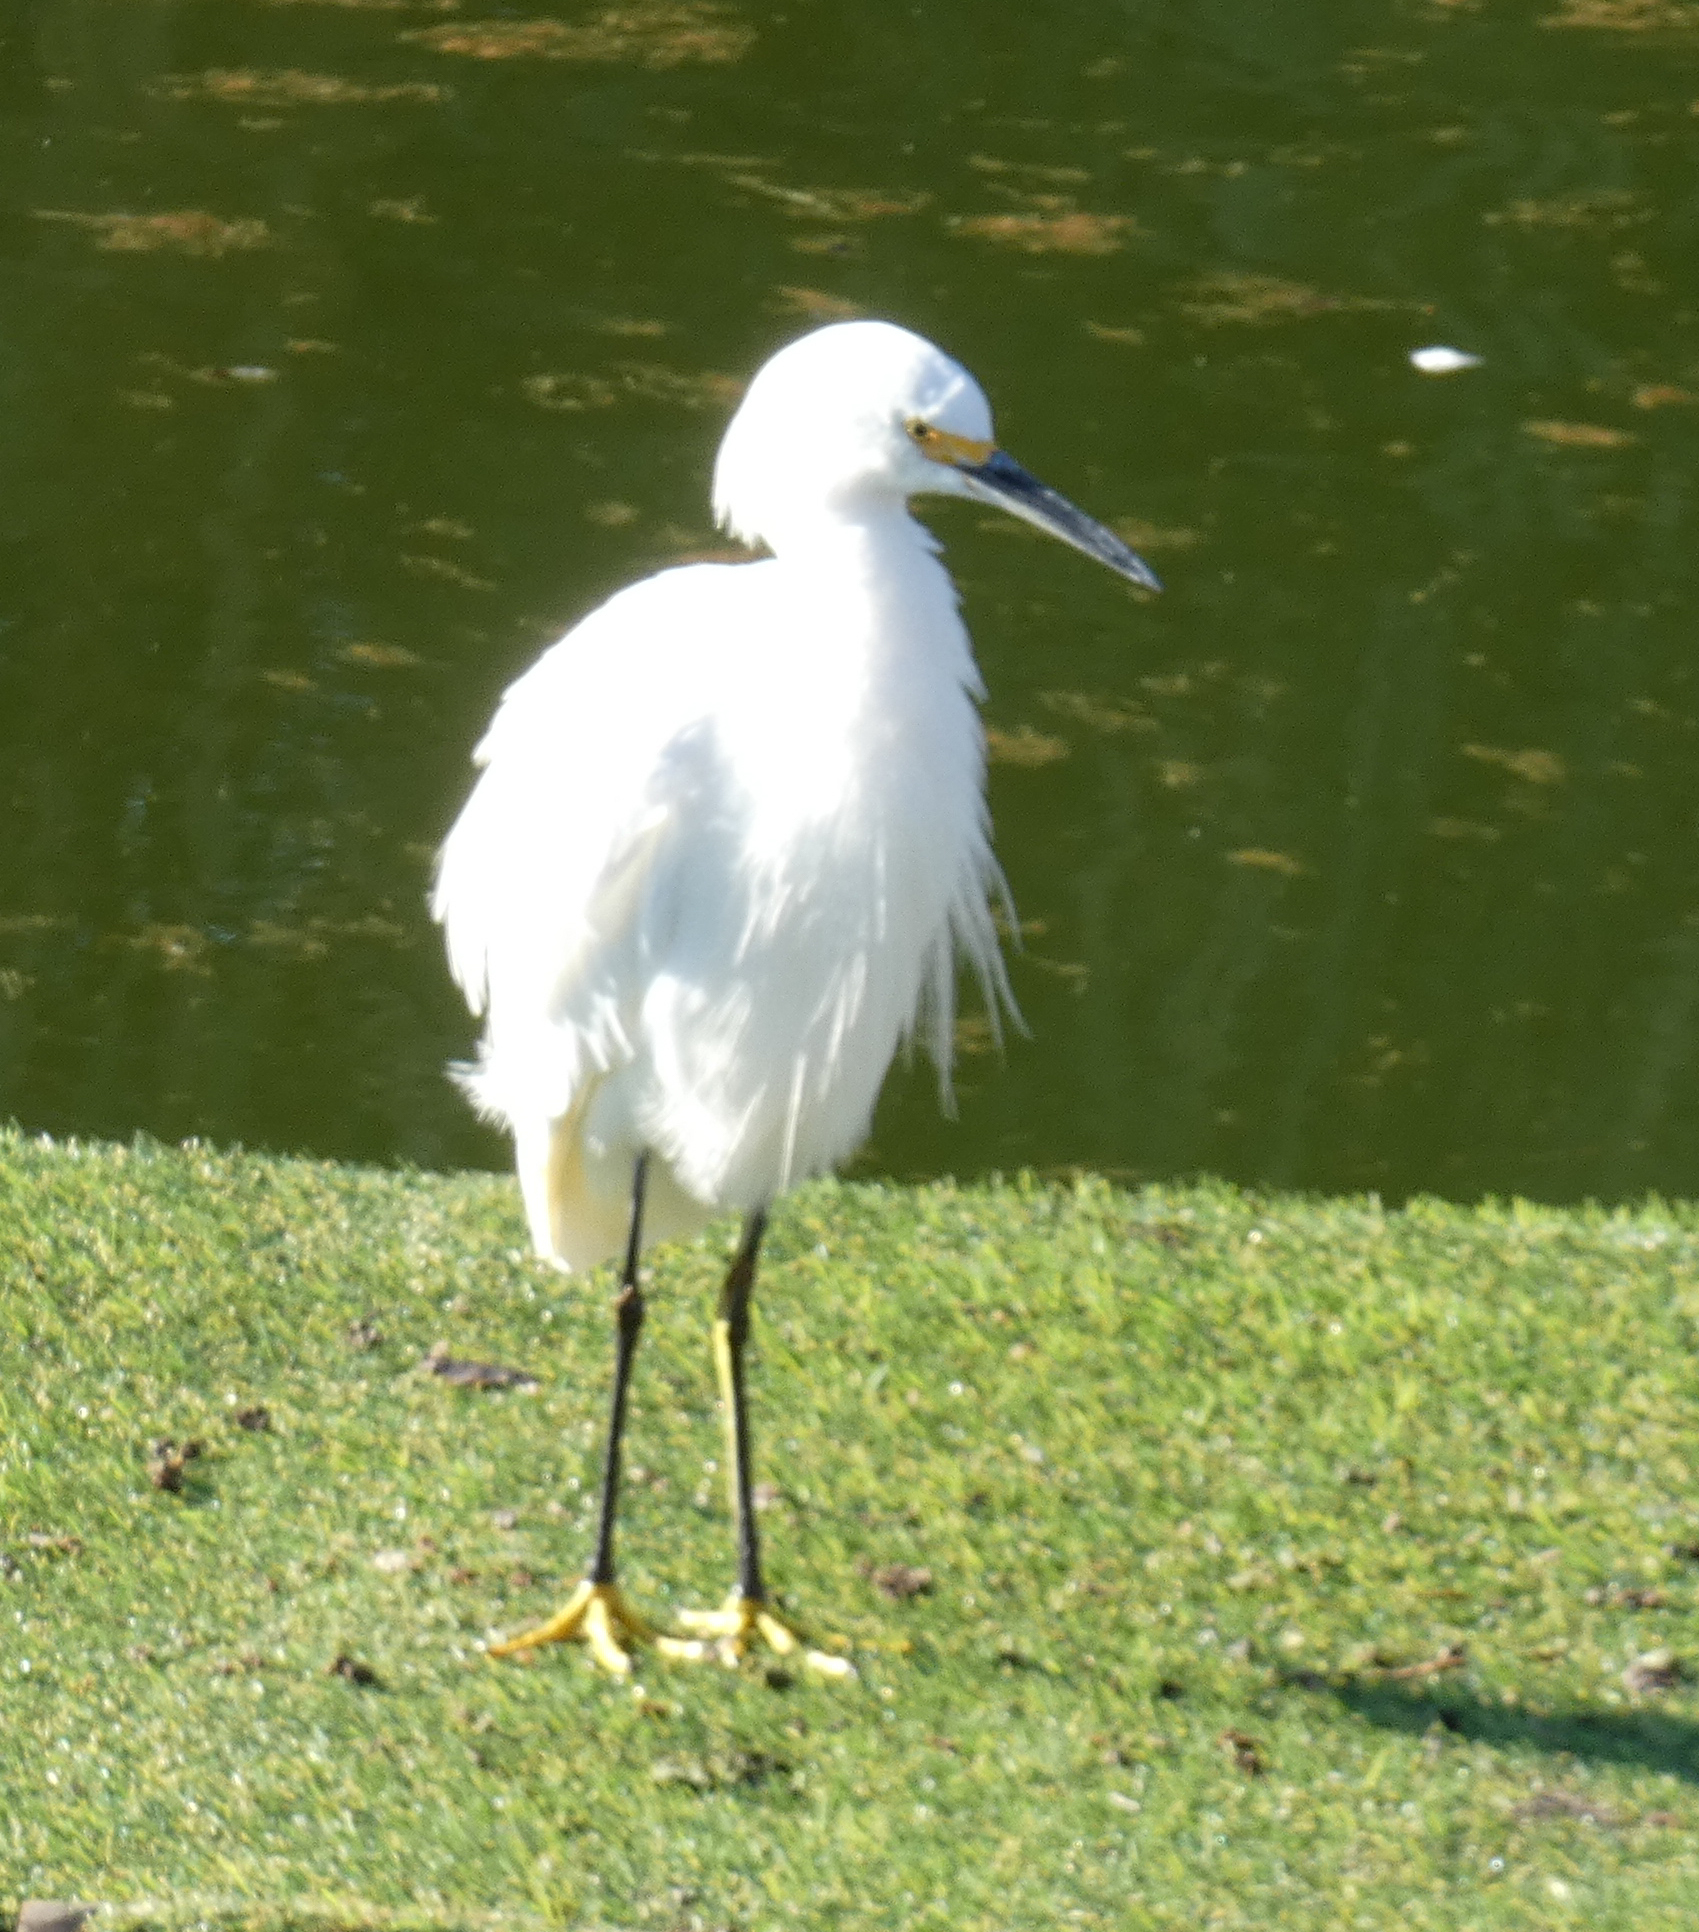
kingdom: Animalia
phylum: Chordata
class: Aves
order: Pelecaniformes
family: Ardeidae
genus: Egretta
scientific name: Egretta thula
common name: Snowy egret
